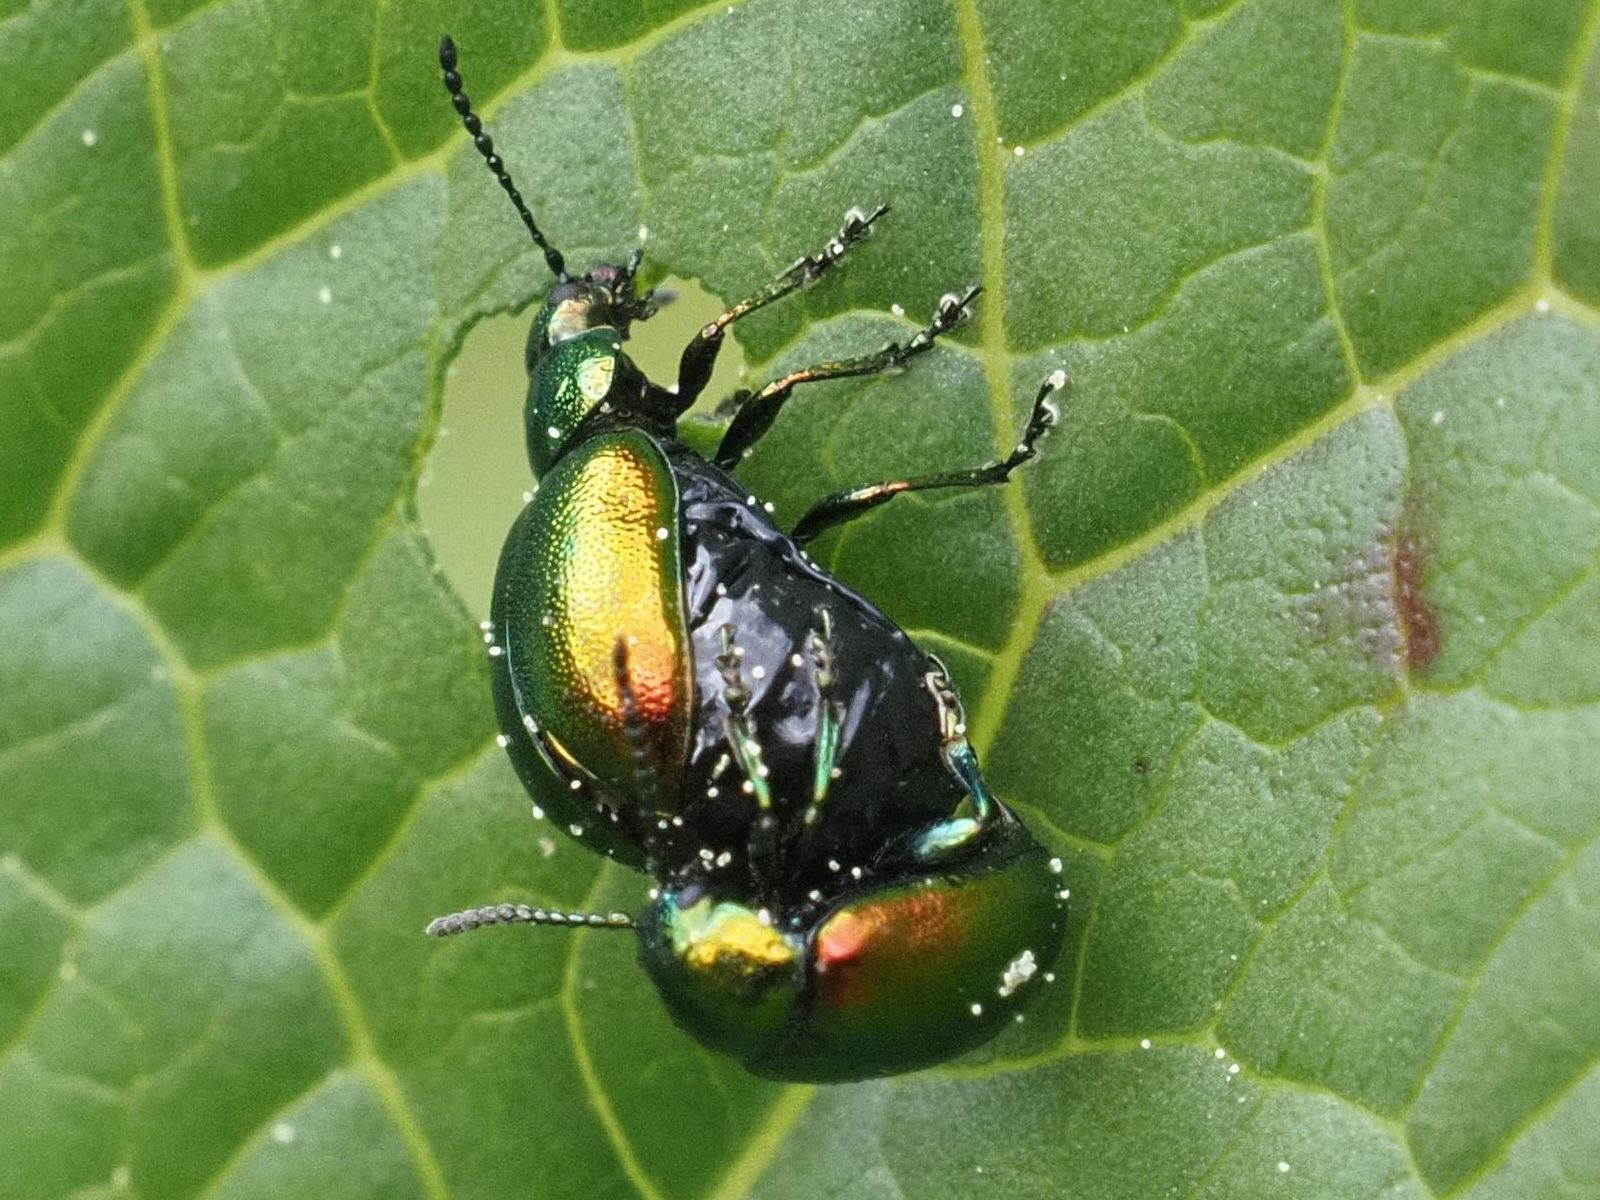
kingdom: Animalia
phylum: Arthropoda
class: Insecta
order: Coleoptera
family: Chrysomelidae
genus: Gastrophysa
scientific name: Gastrophysa viridula
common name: Green dock beetle
